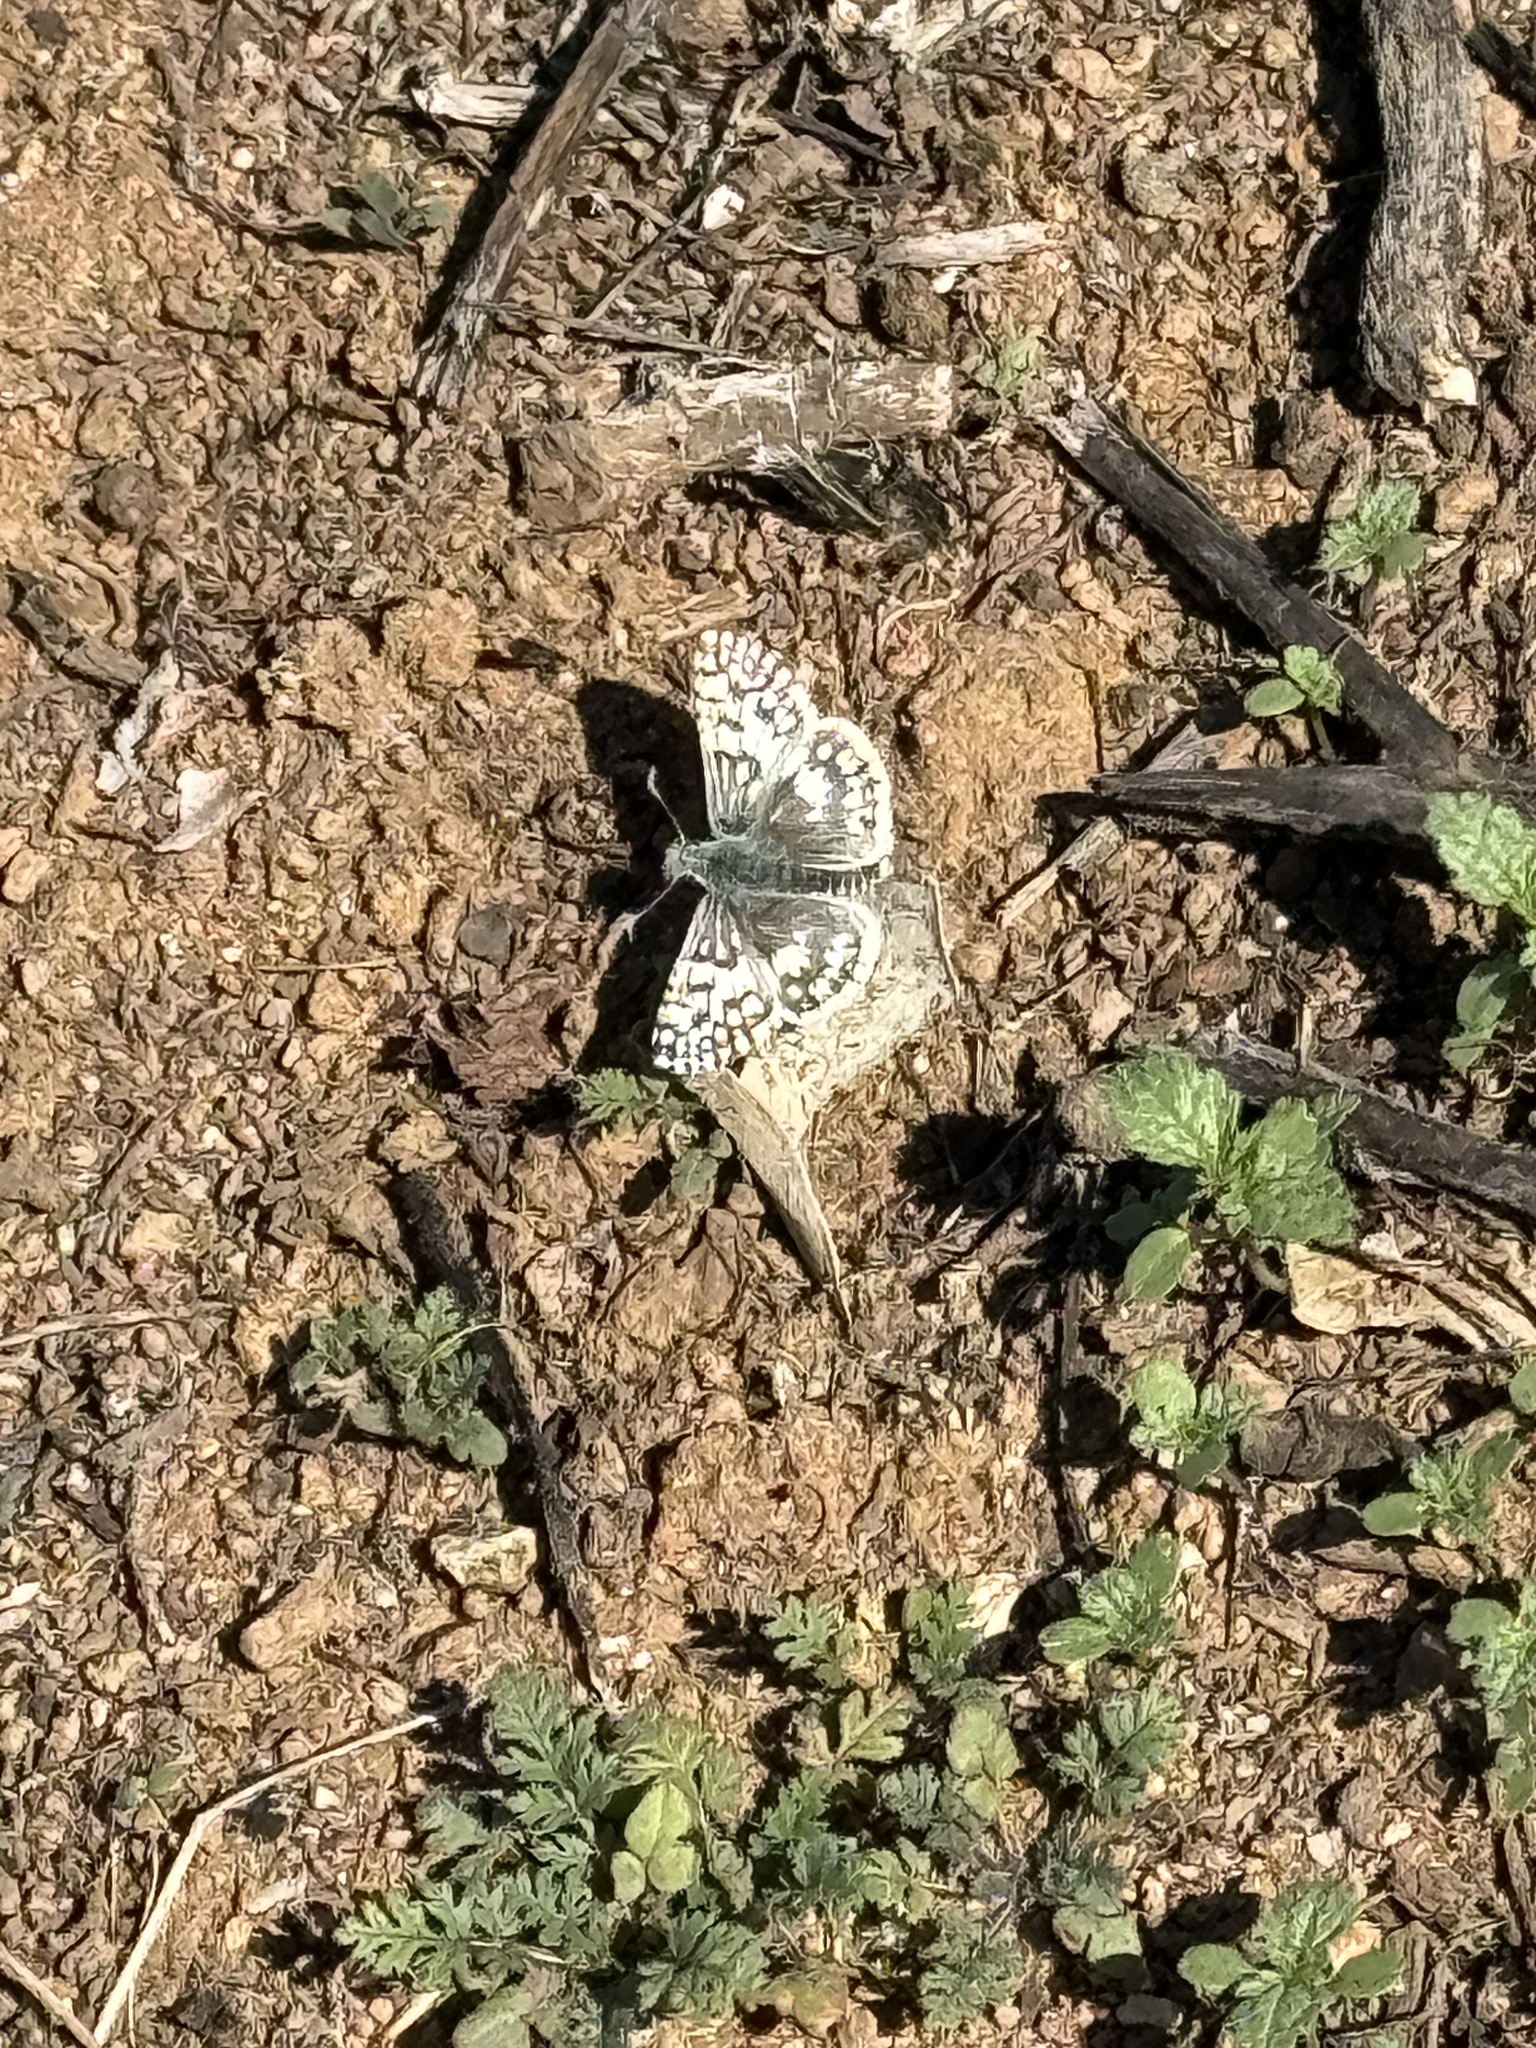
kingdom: Animalia
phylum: Arthropoda
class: Insecta
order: Lepidoptera
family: Hesperiidae
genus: Burnsius
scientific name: Burnsius communis
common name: Common checkered-skipper
